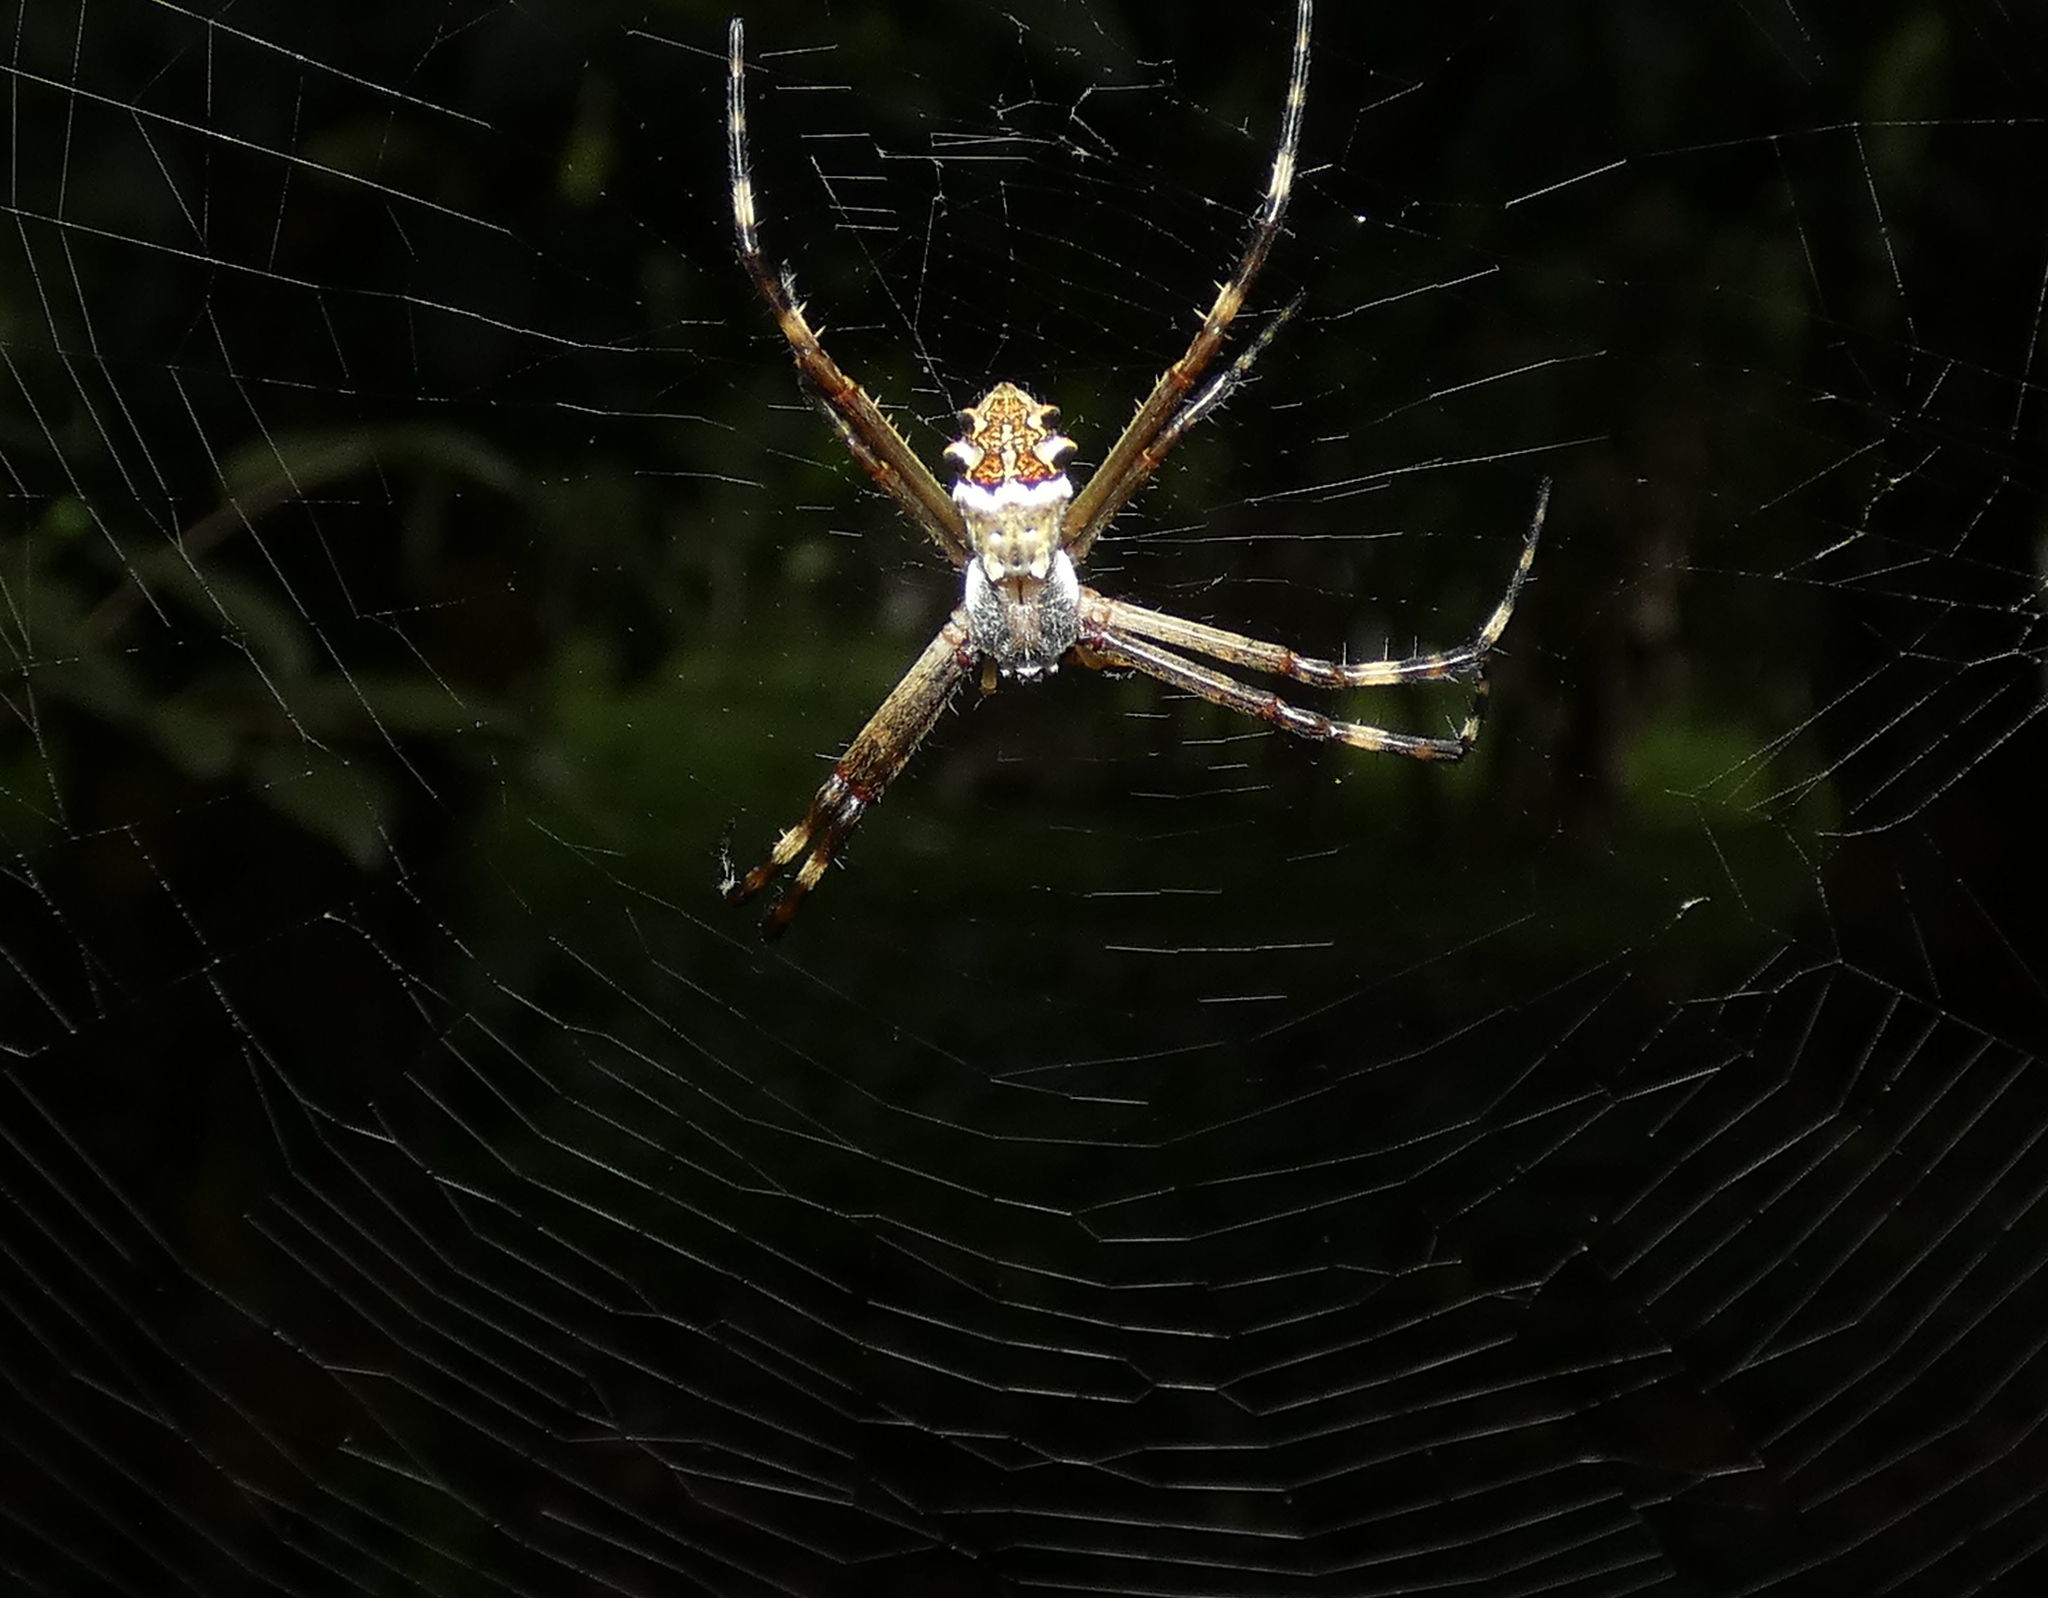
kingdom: Animalia
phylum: Arthropoda
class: Arachnida
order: Araneae
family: Araneidae
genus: Argiope
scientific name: Argiope argentata
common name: Orb weavers
